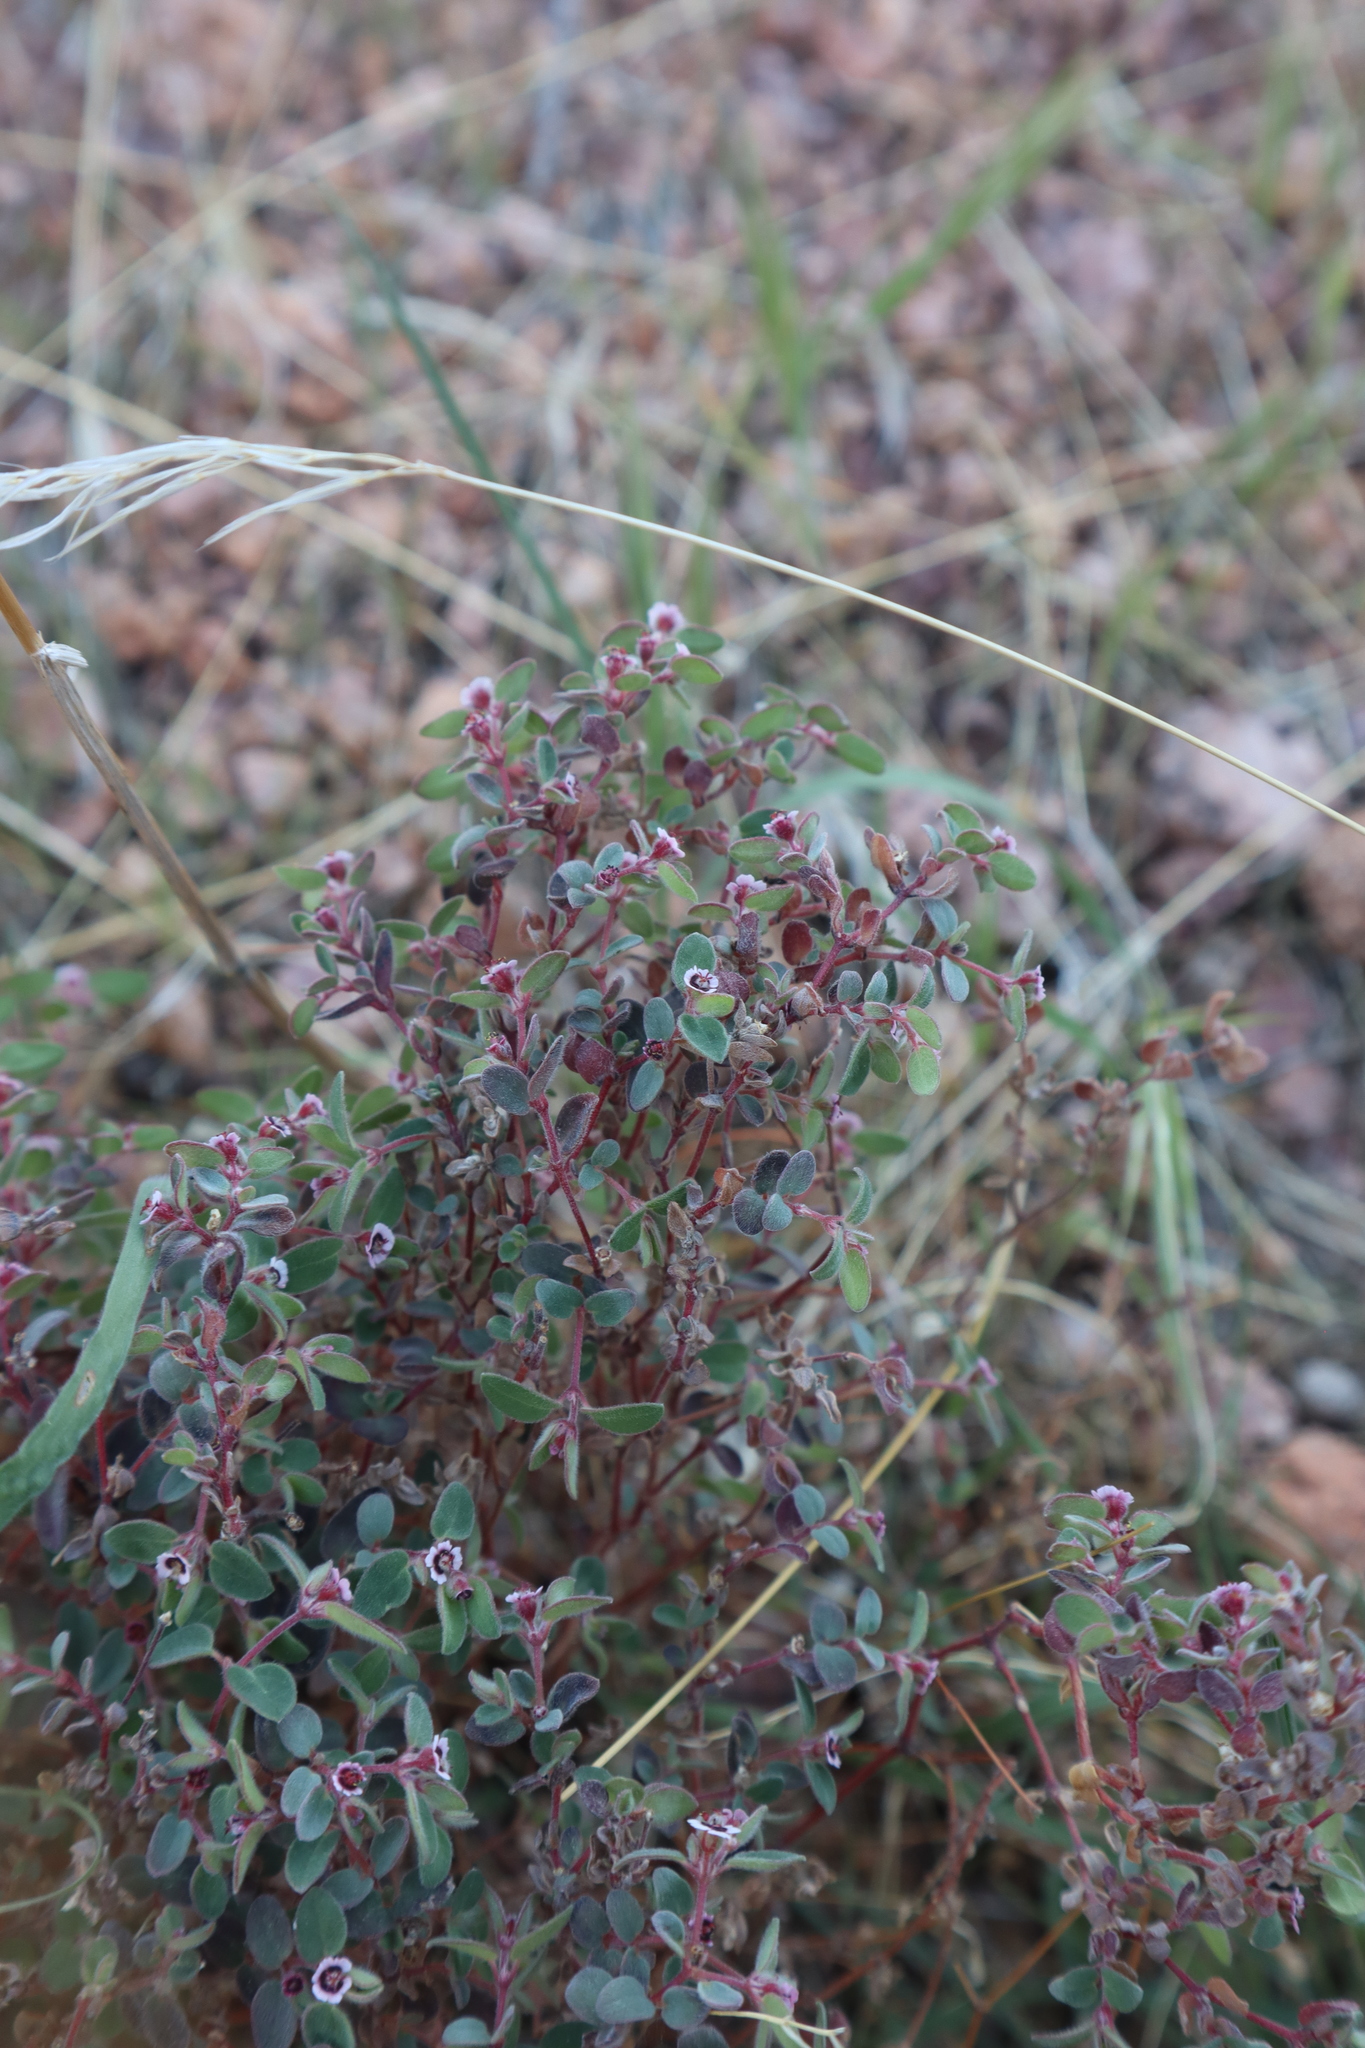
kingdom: Plantae
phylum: Tracheophyta
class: Magnoliopsida
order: Malpighiales
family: Euphorbiaceae
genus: Euphorbia
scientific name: Euphorbia melanadenia
